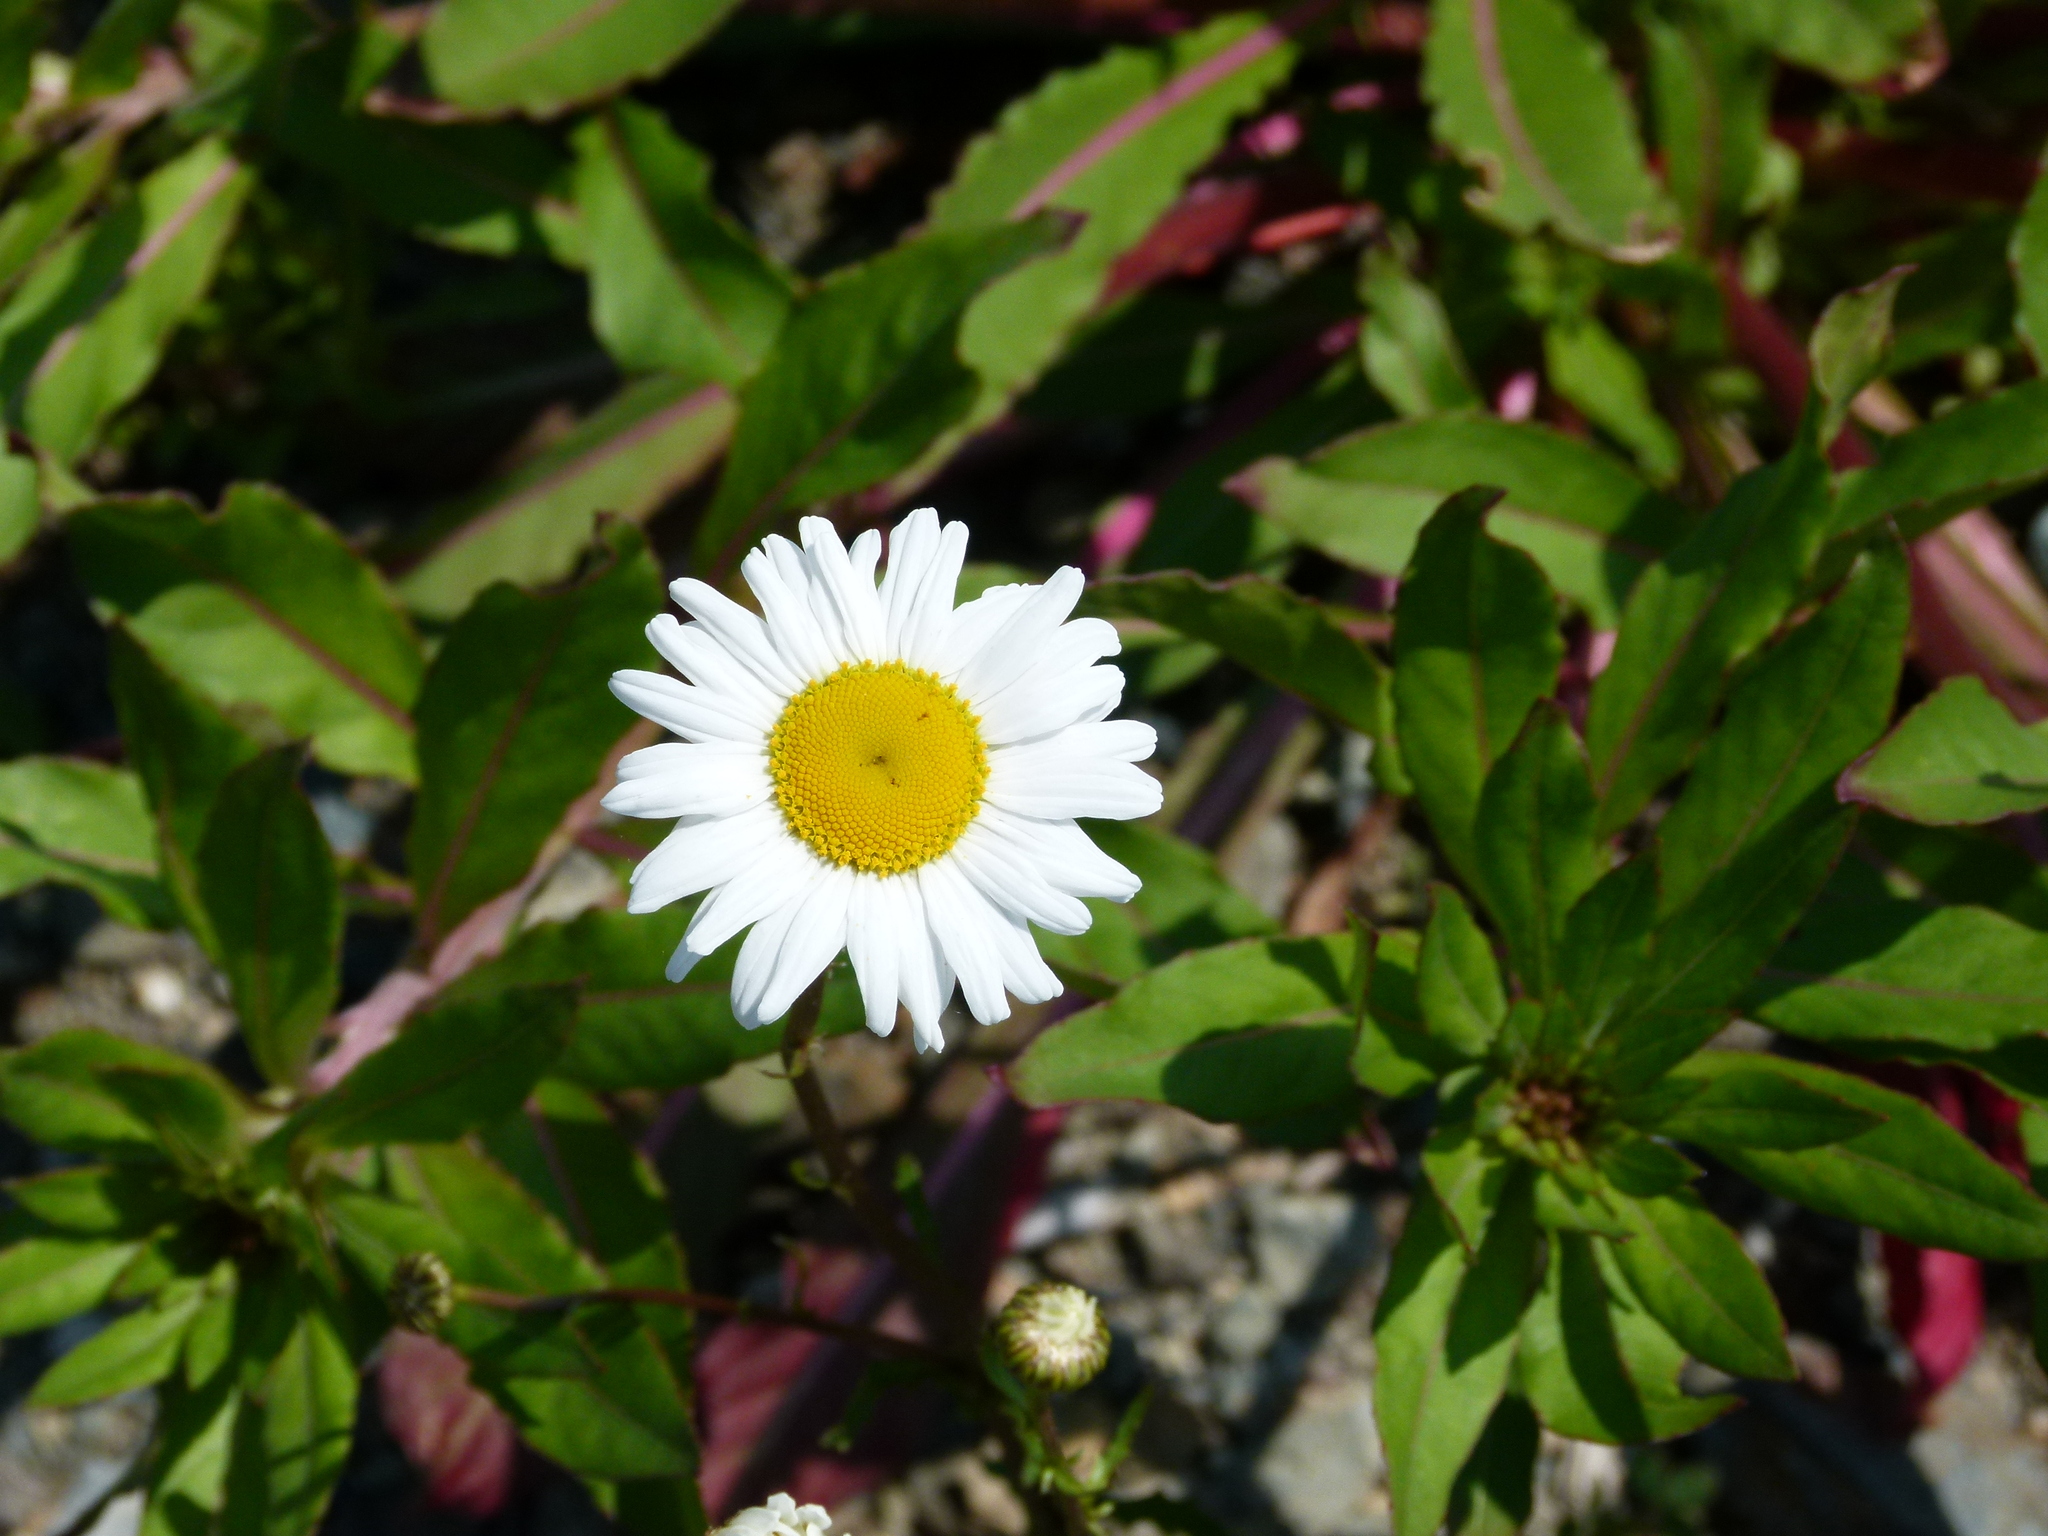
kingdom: Plantae
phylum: Tracheophyta
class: Magnoliopsida
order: Asterales
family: Asteraceae
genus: Leucanthemum
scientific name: Leucanthemum vulgare
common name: Oxeye daisy
